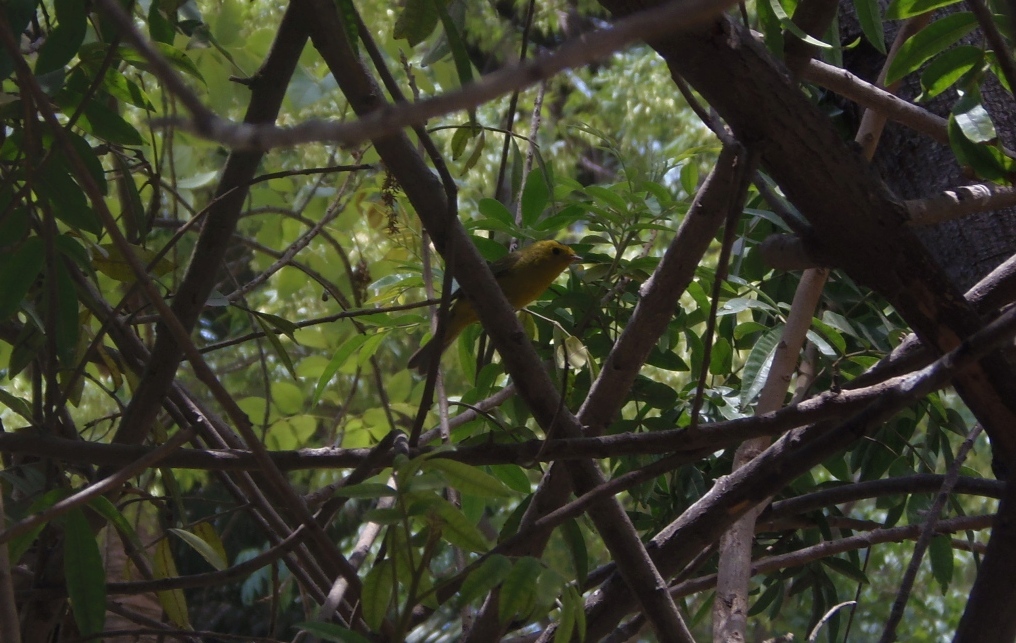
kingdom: Animalia
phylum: Chordata
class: Aves
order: Passeriformes
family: Parulidae
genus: Cardellina
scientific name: Cardellina pusilla
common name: Wilson's warbler
